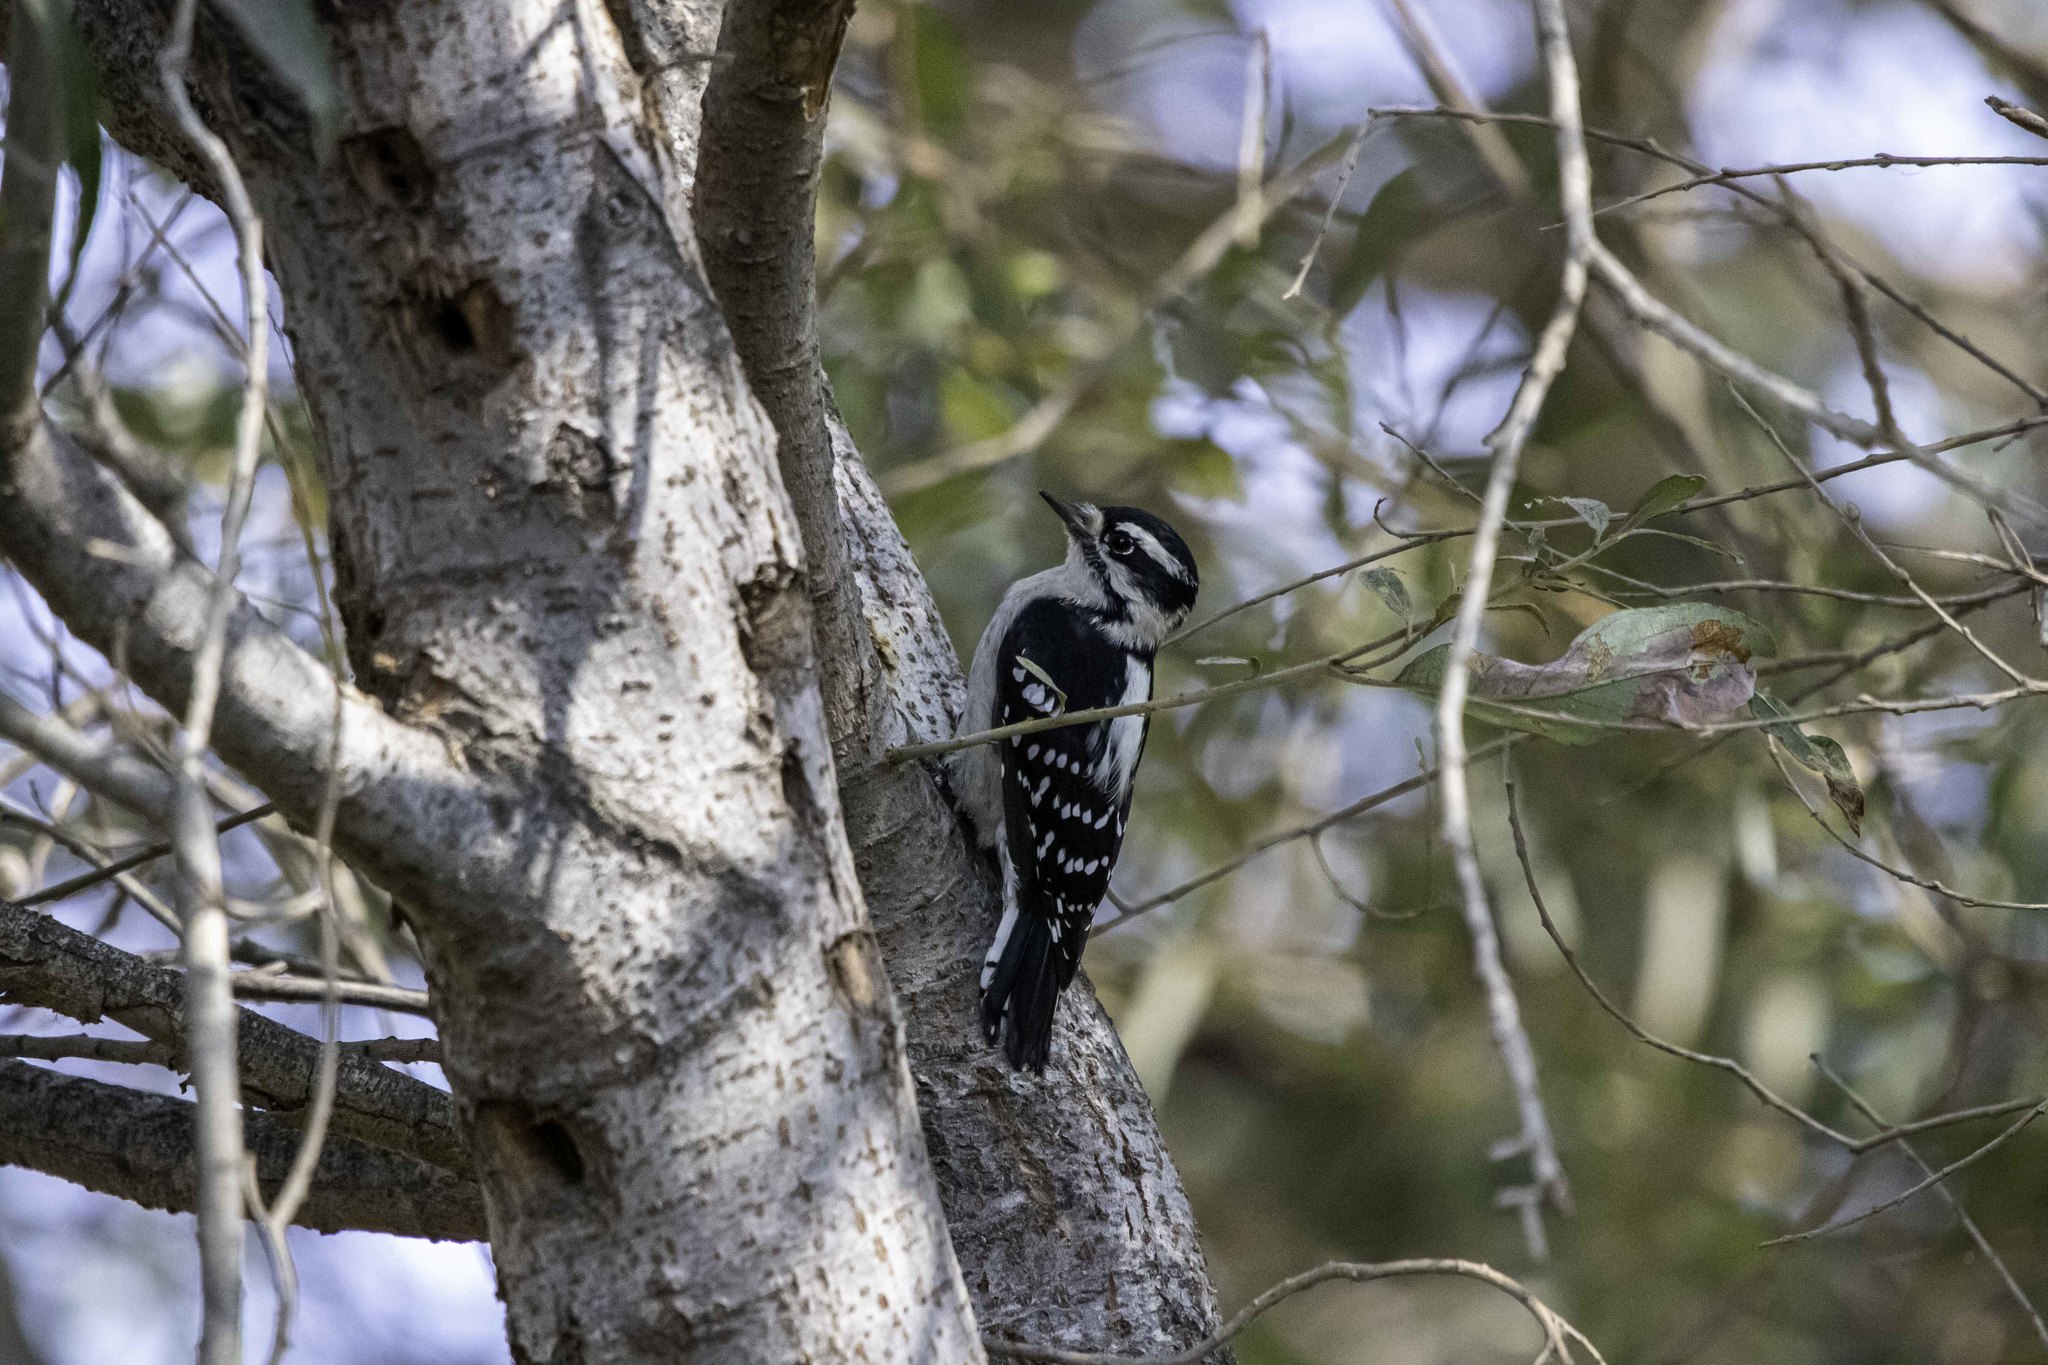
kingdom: Animalia
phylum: Chordata
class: Aves
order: Piciformes
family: Picidae
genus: Dryobates
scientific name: Dryobates pubescens
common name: Downy woodpecker
